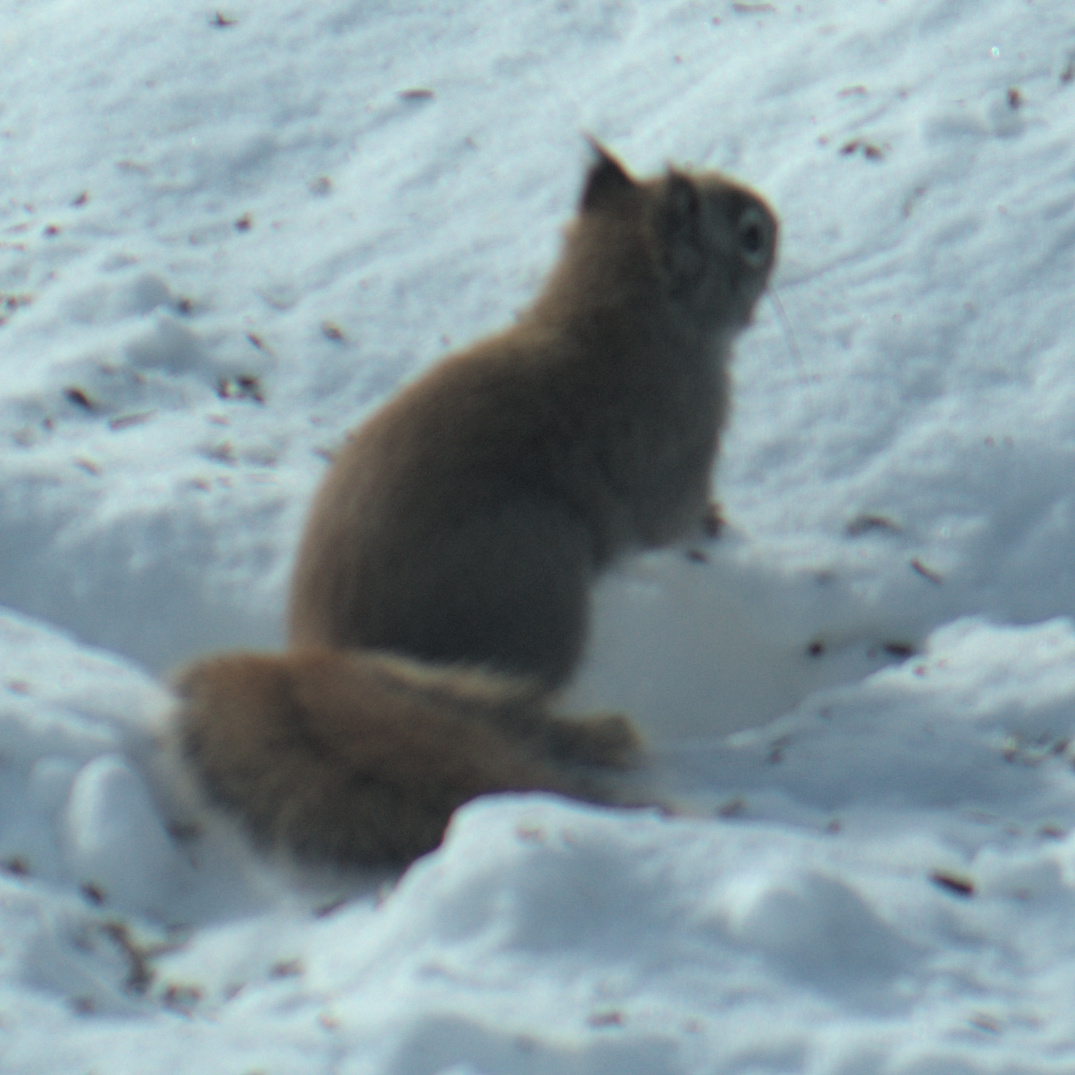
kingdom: Animalia
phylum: Chordata
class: Mammalia
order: Rodentia
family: Sciuridae
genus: Tamiasciurus
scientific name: Tamiasciurus hudsonicus
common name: Red squirrel
